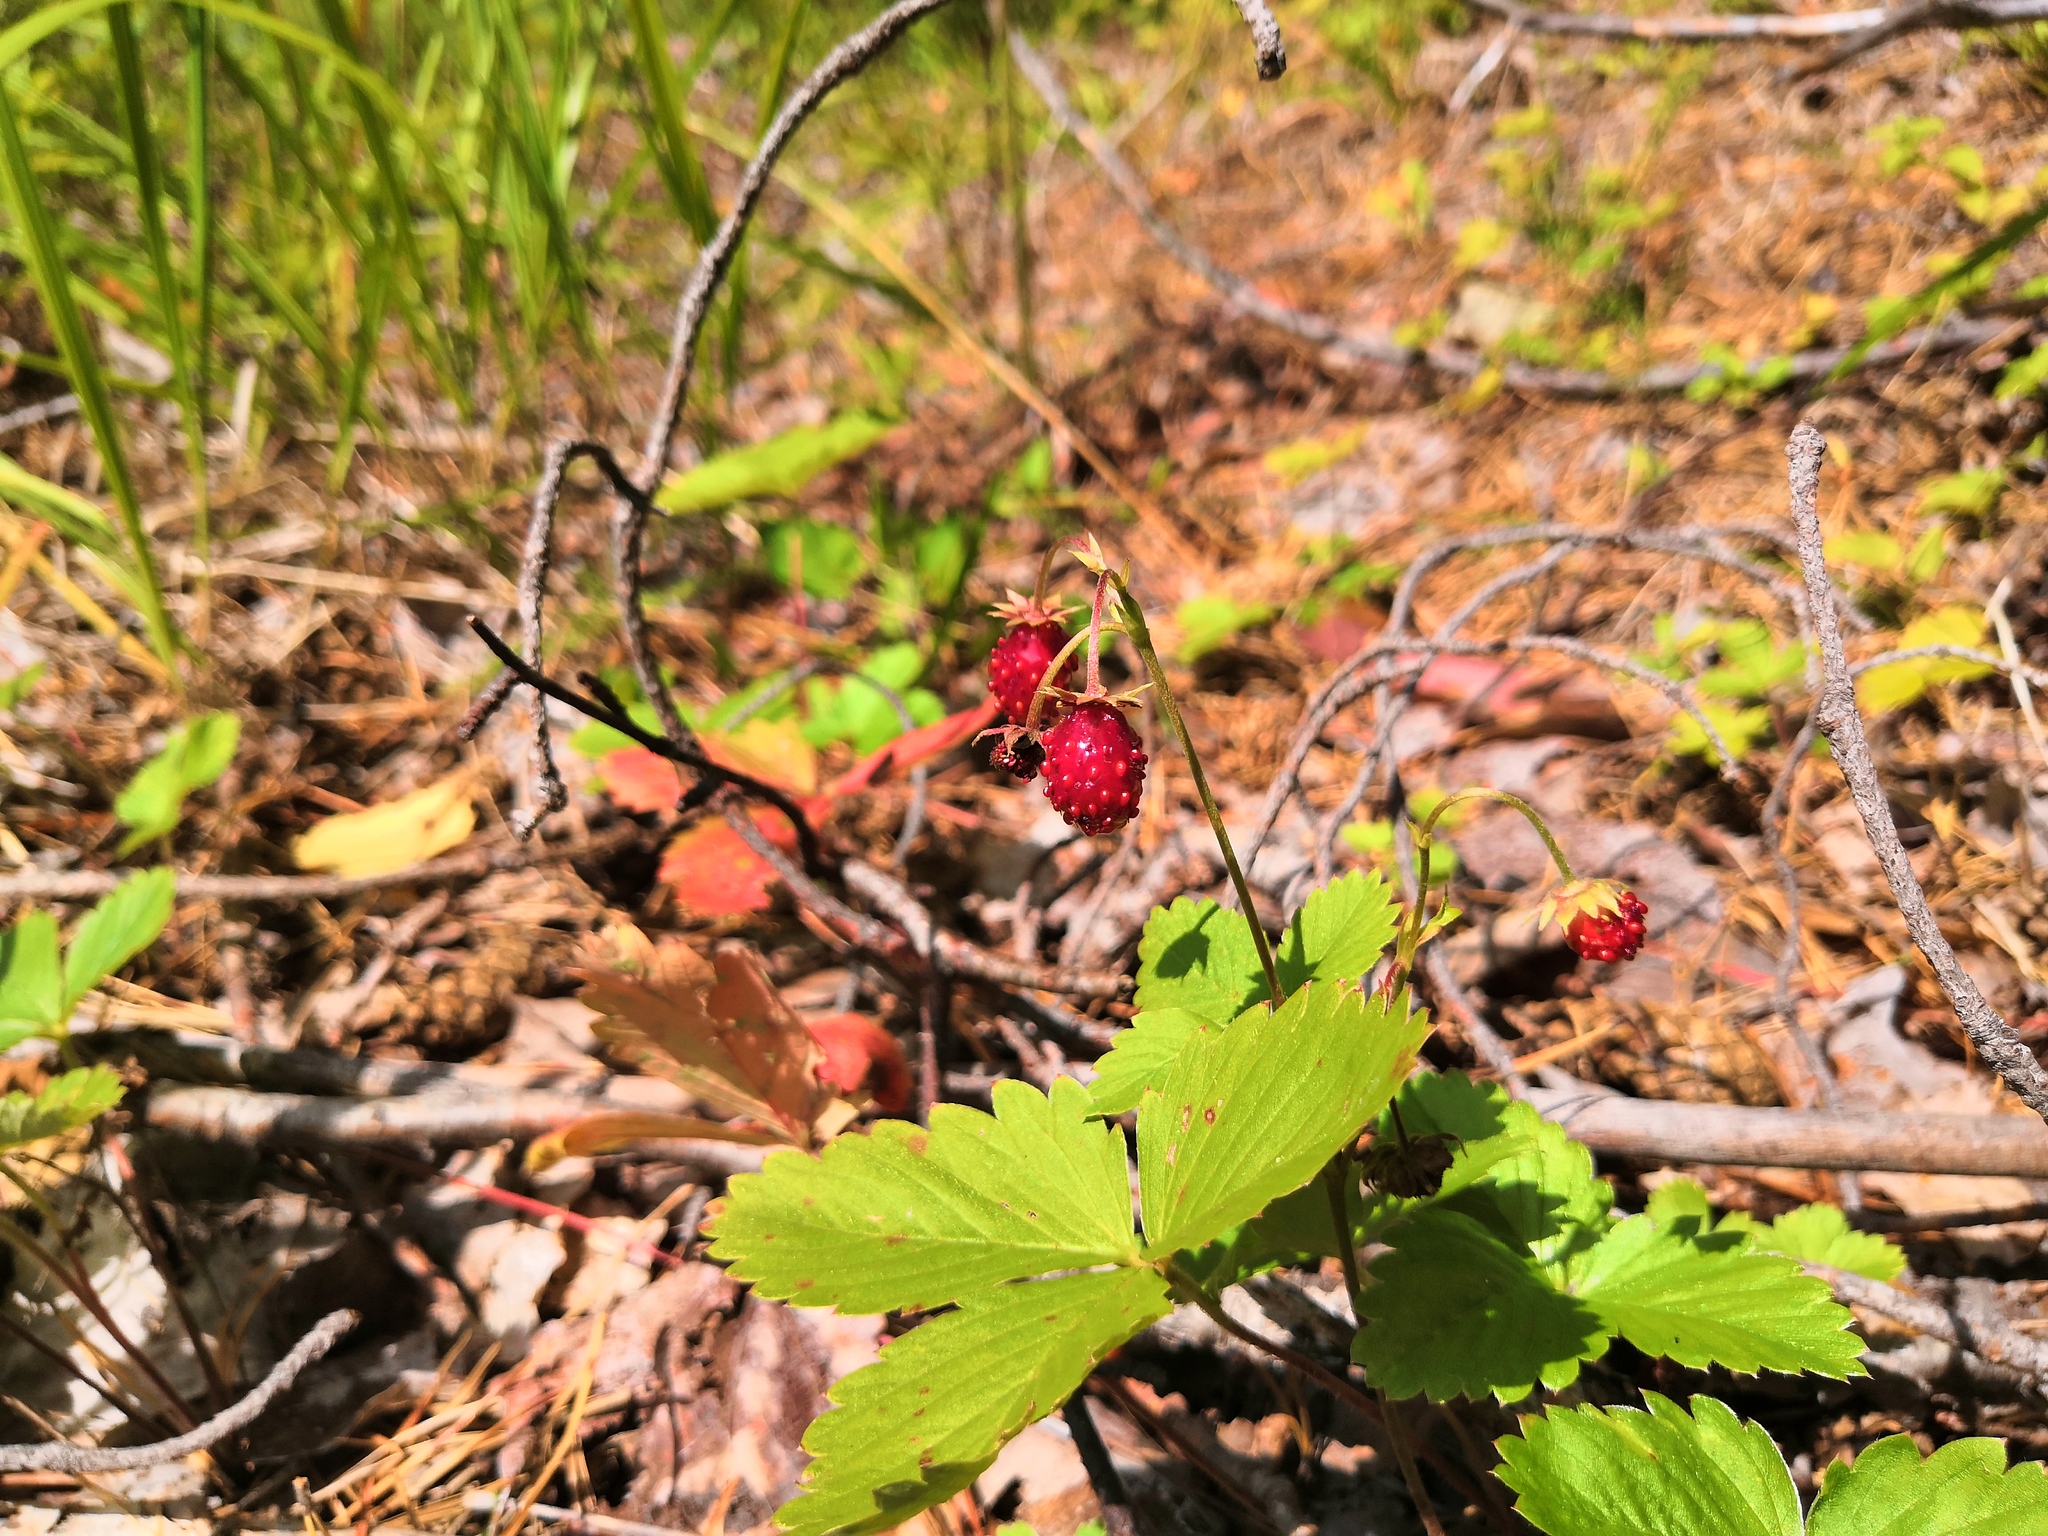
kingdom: Plantae
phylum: Tracheophyta
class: Magnoliopsida
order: Rosales
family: Rosaceae
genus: Fragaria
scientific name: Fragaria vesca
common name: Wild strawberry
